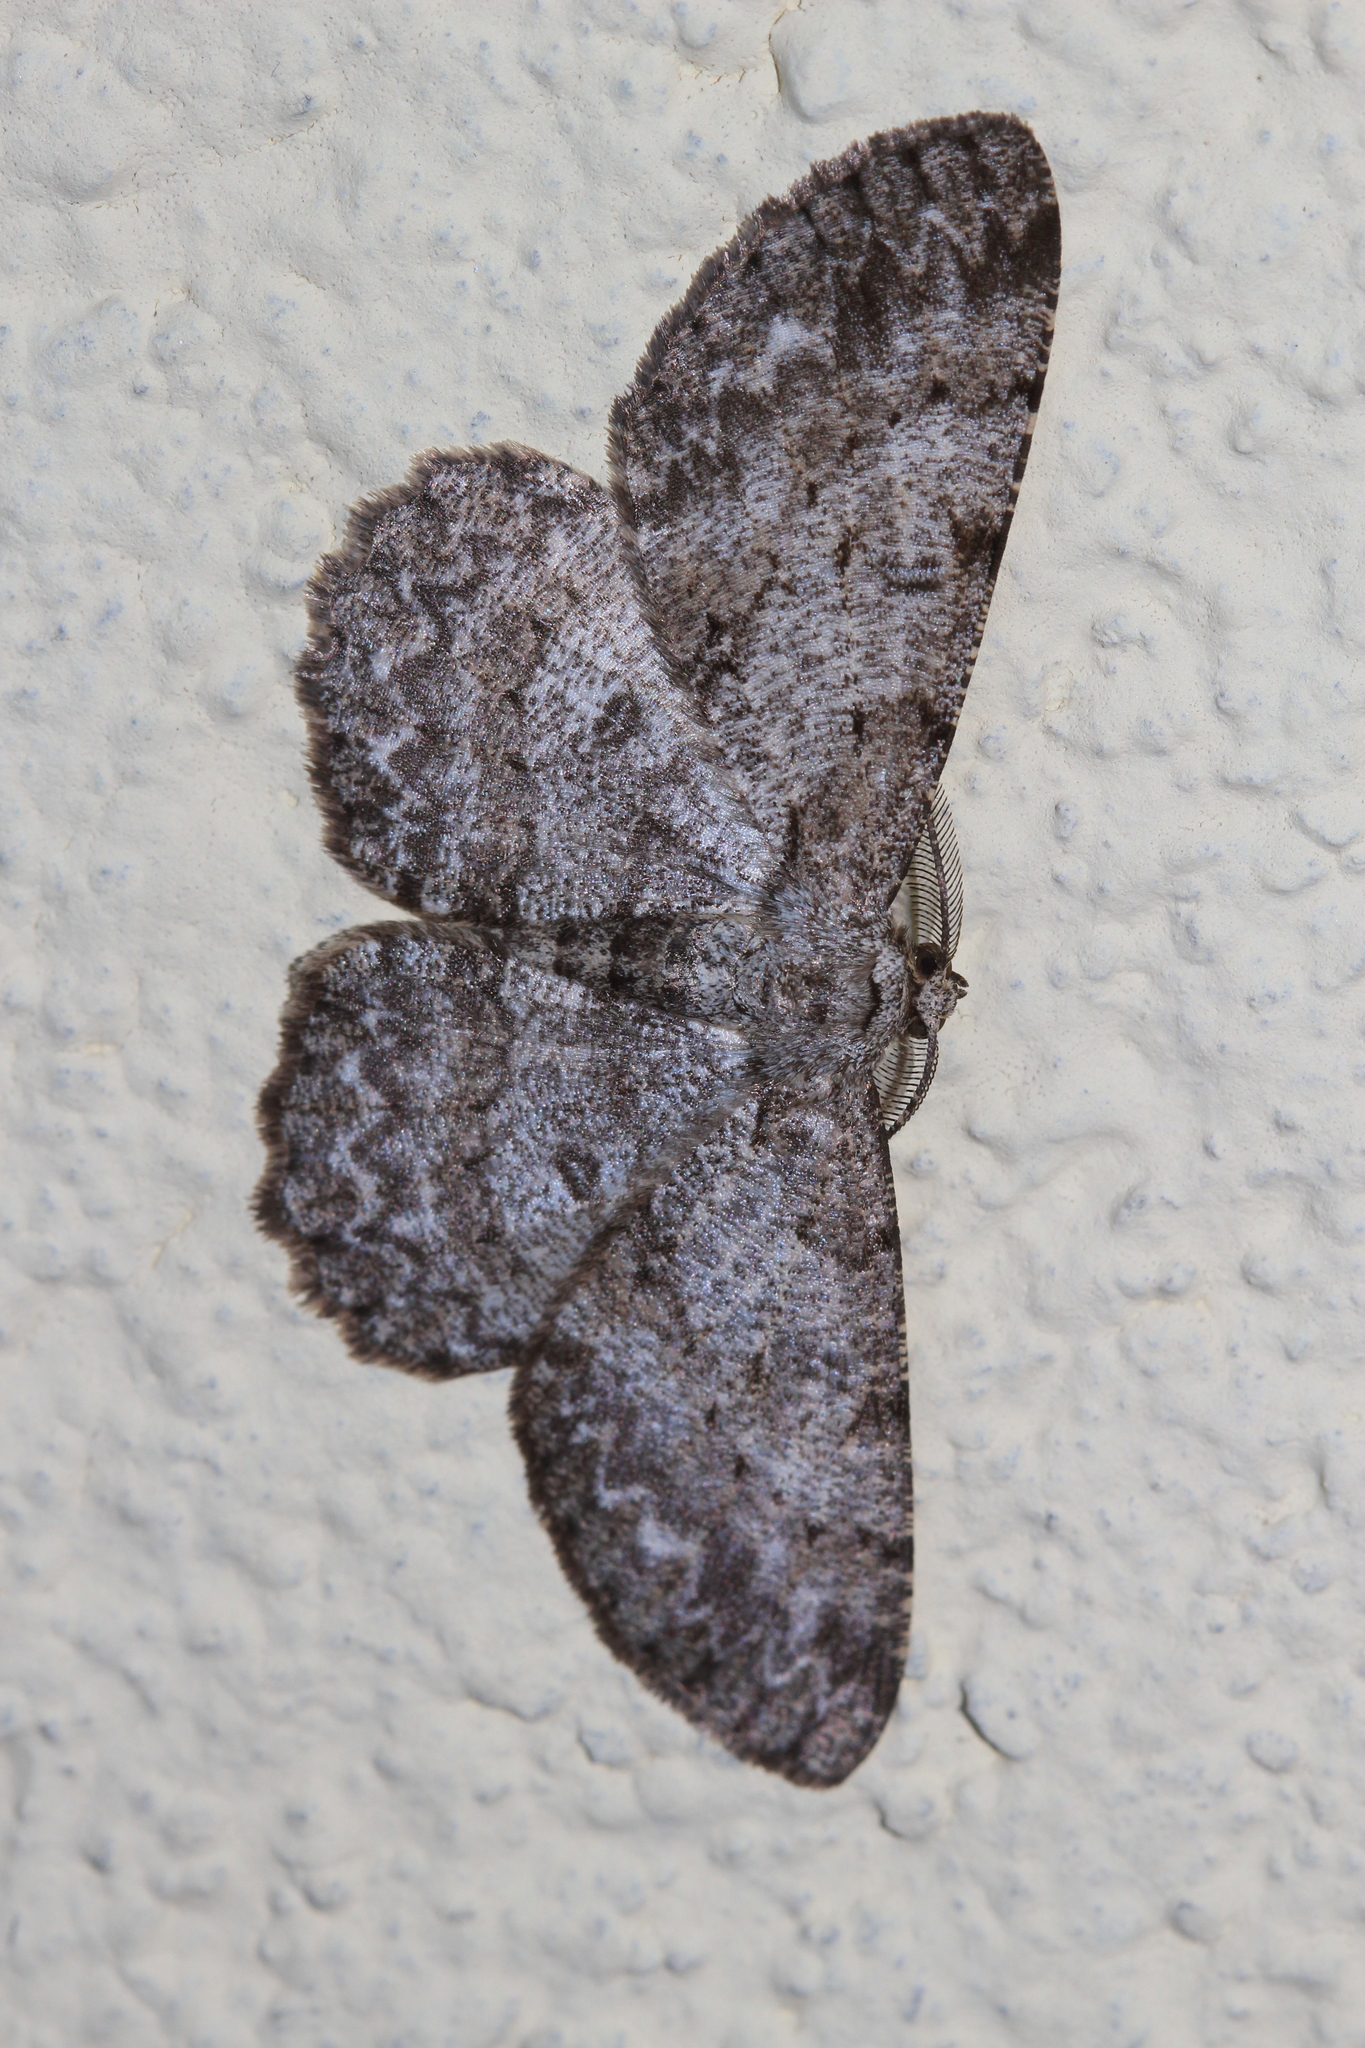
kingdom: Animalia
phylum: Arthropoda
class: Insecta
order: Lepidoptera
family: Geometridae
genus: Hypomecis
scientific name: Hypomecis punctinalis
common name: Pale oak beauty
